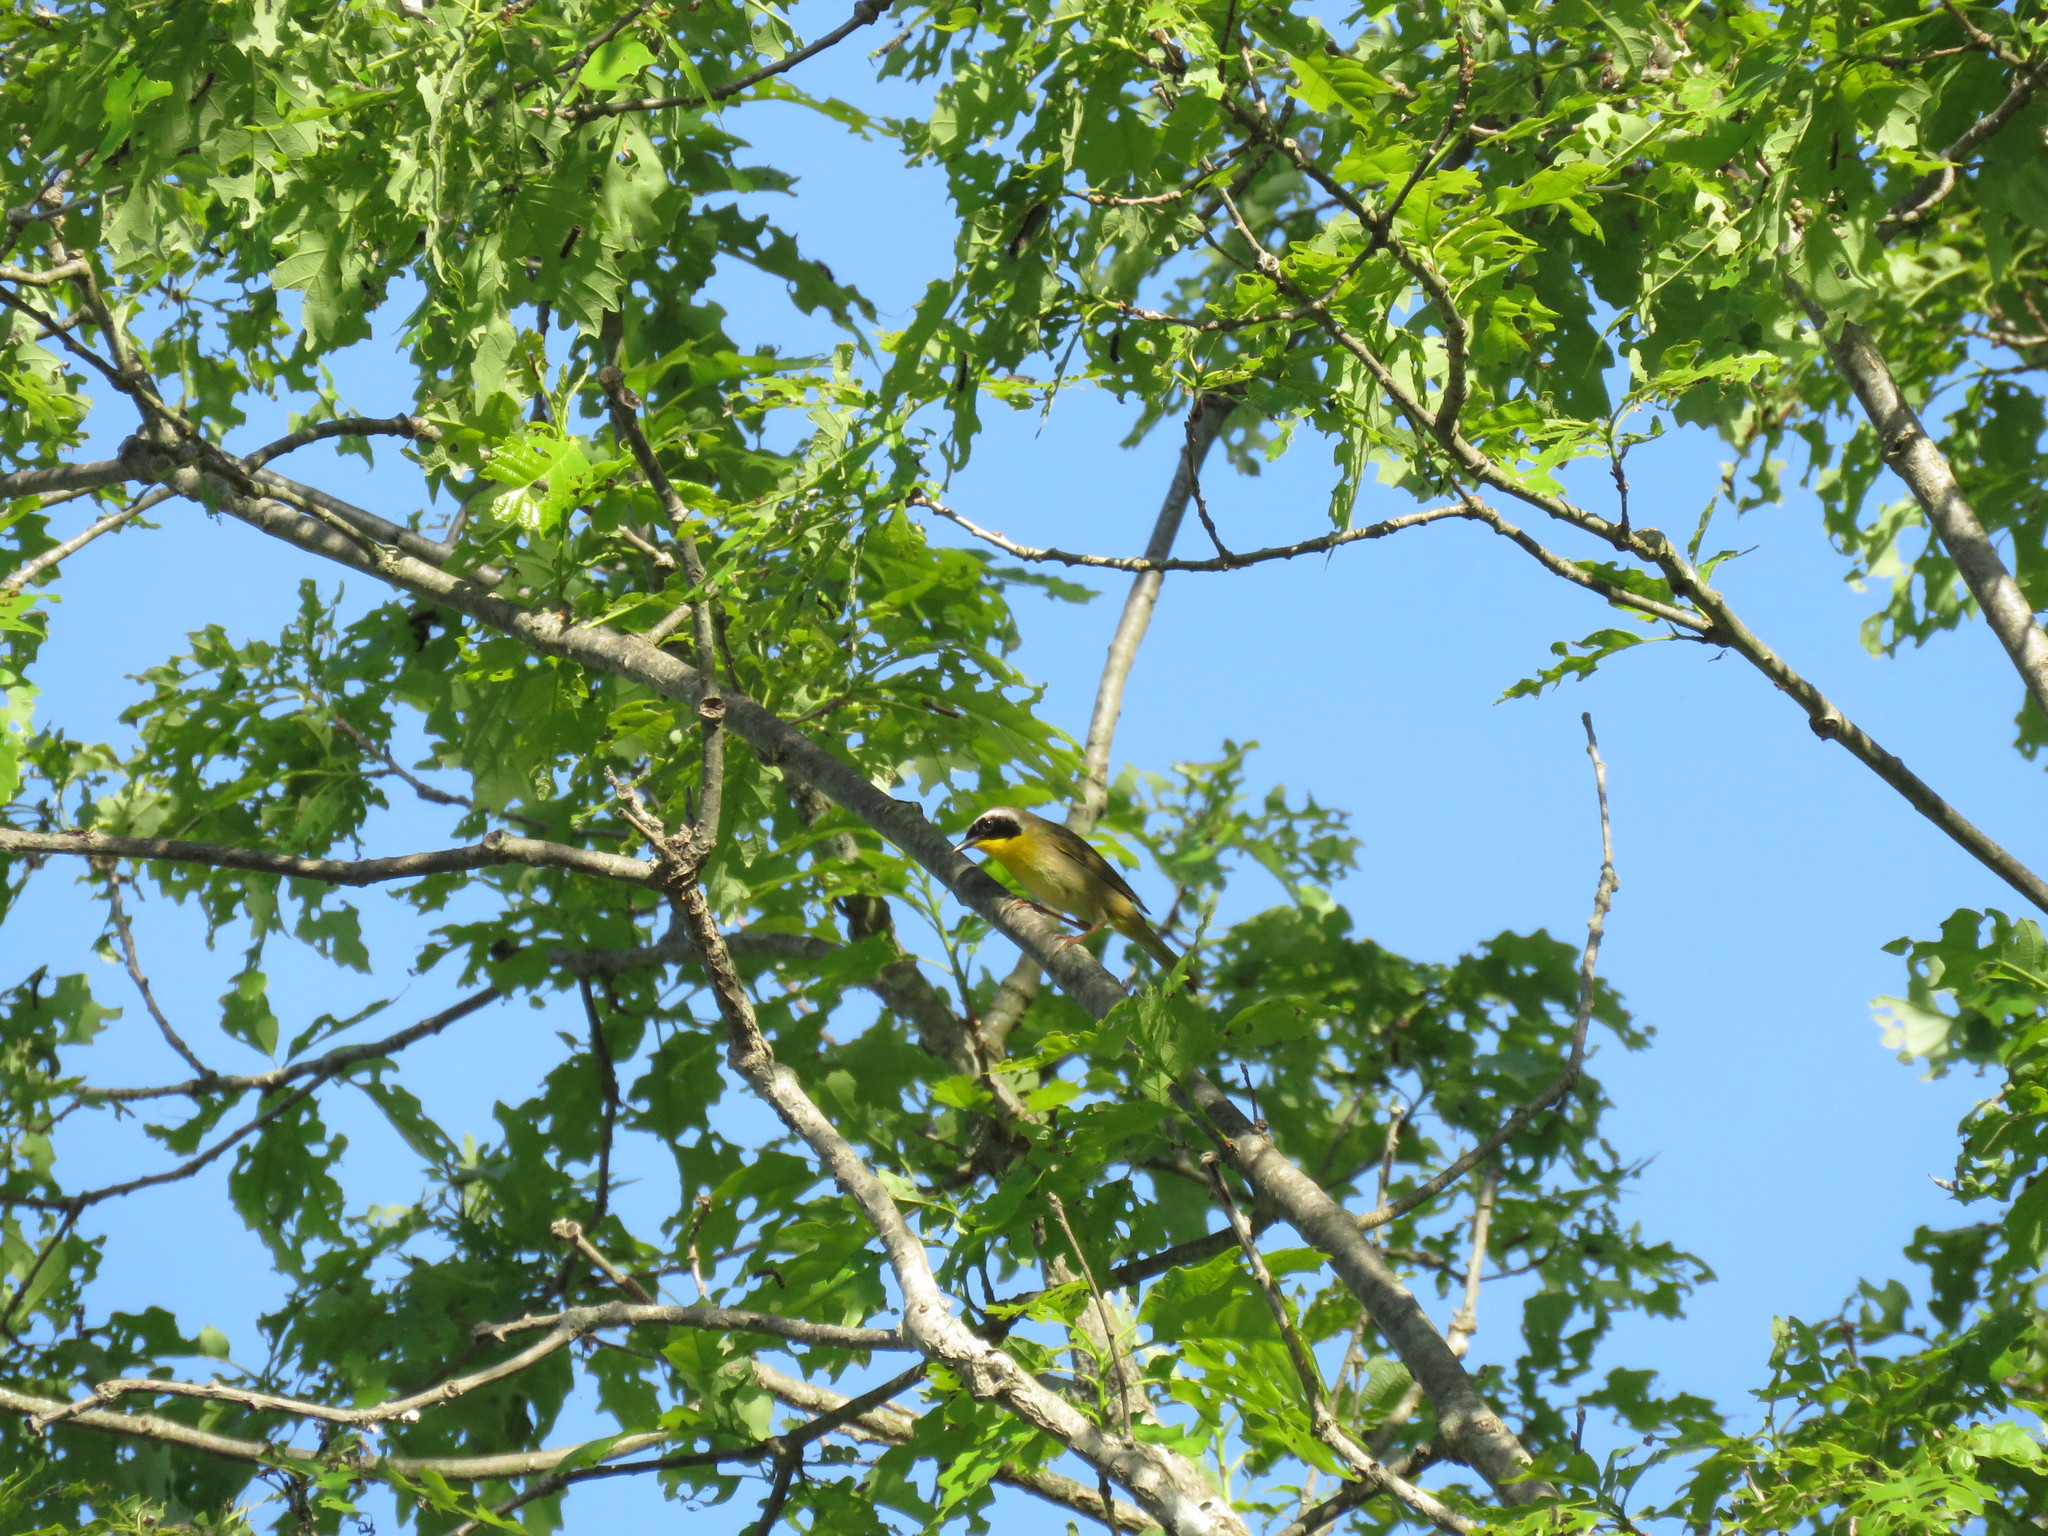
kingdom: Animalia
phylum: Chordata
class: Aves
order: Passeriformes
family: Parulidae
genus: Geothlypis
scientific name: Geothlypis trichas
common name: Common yellowthroat
